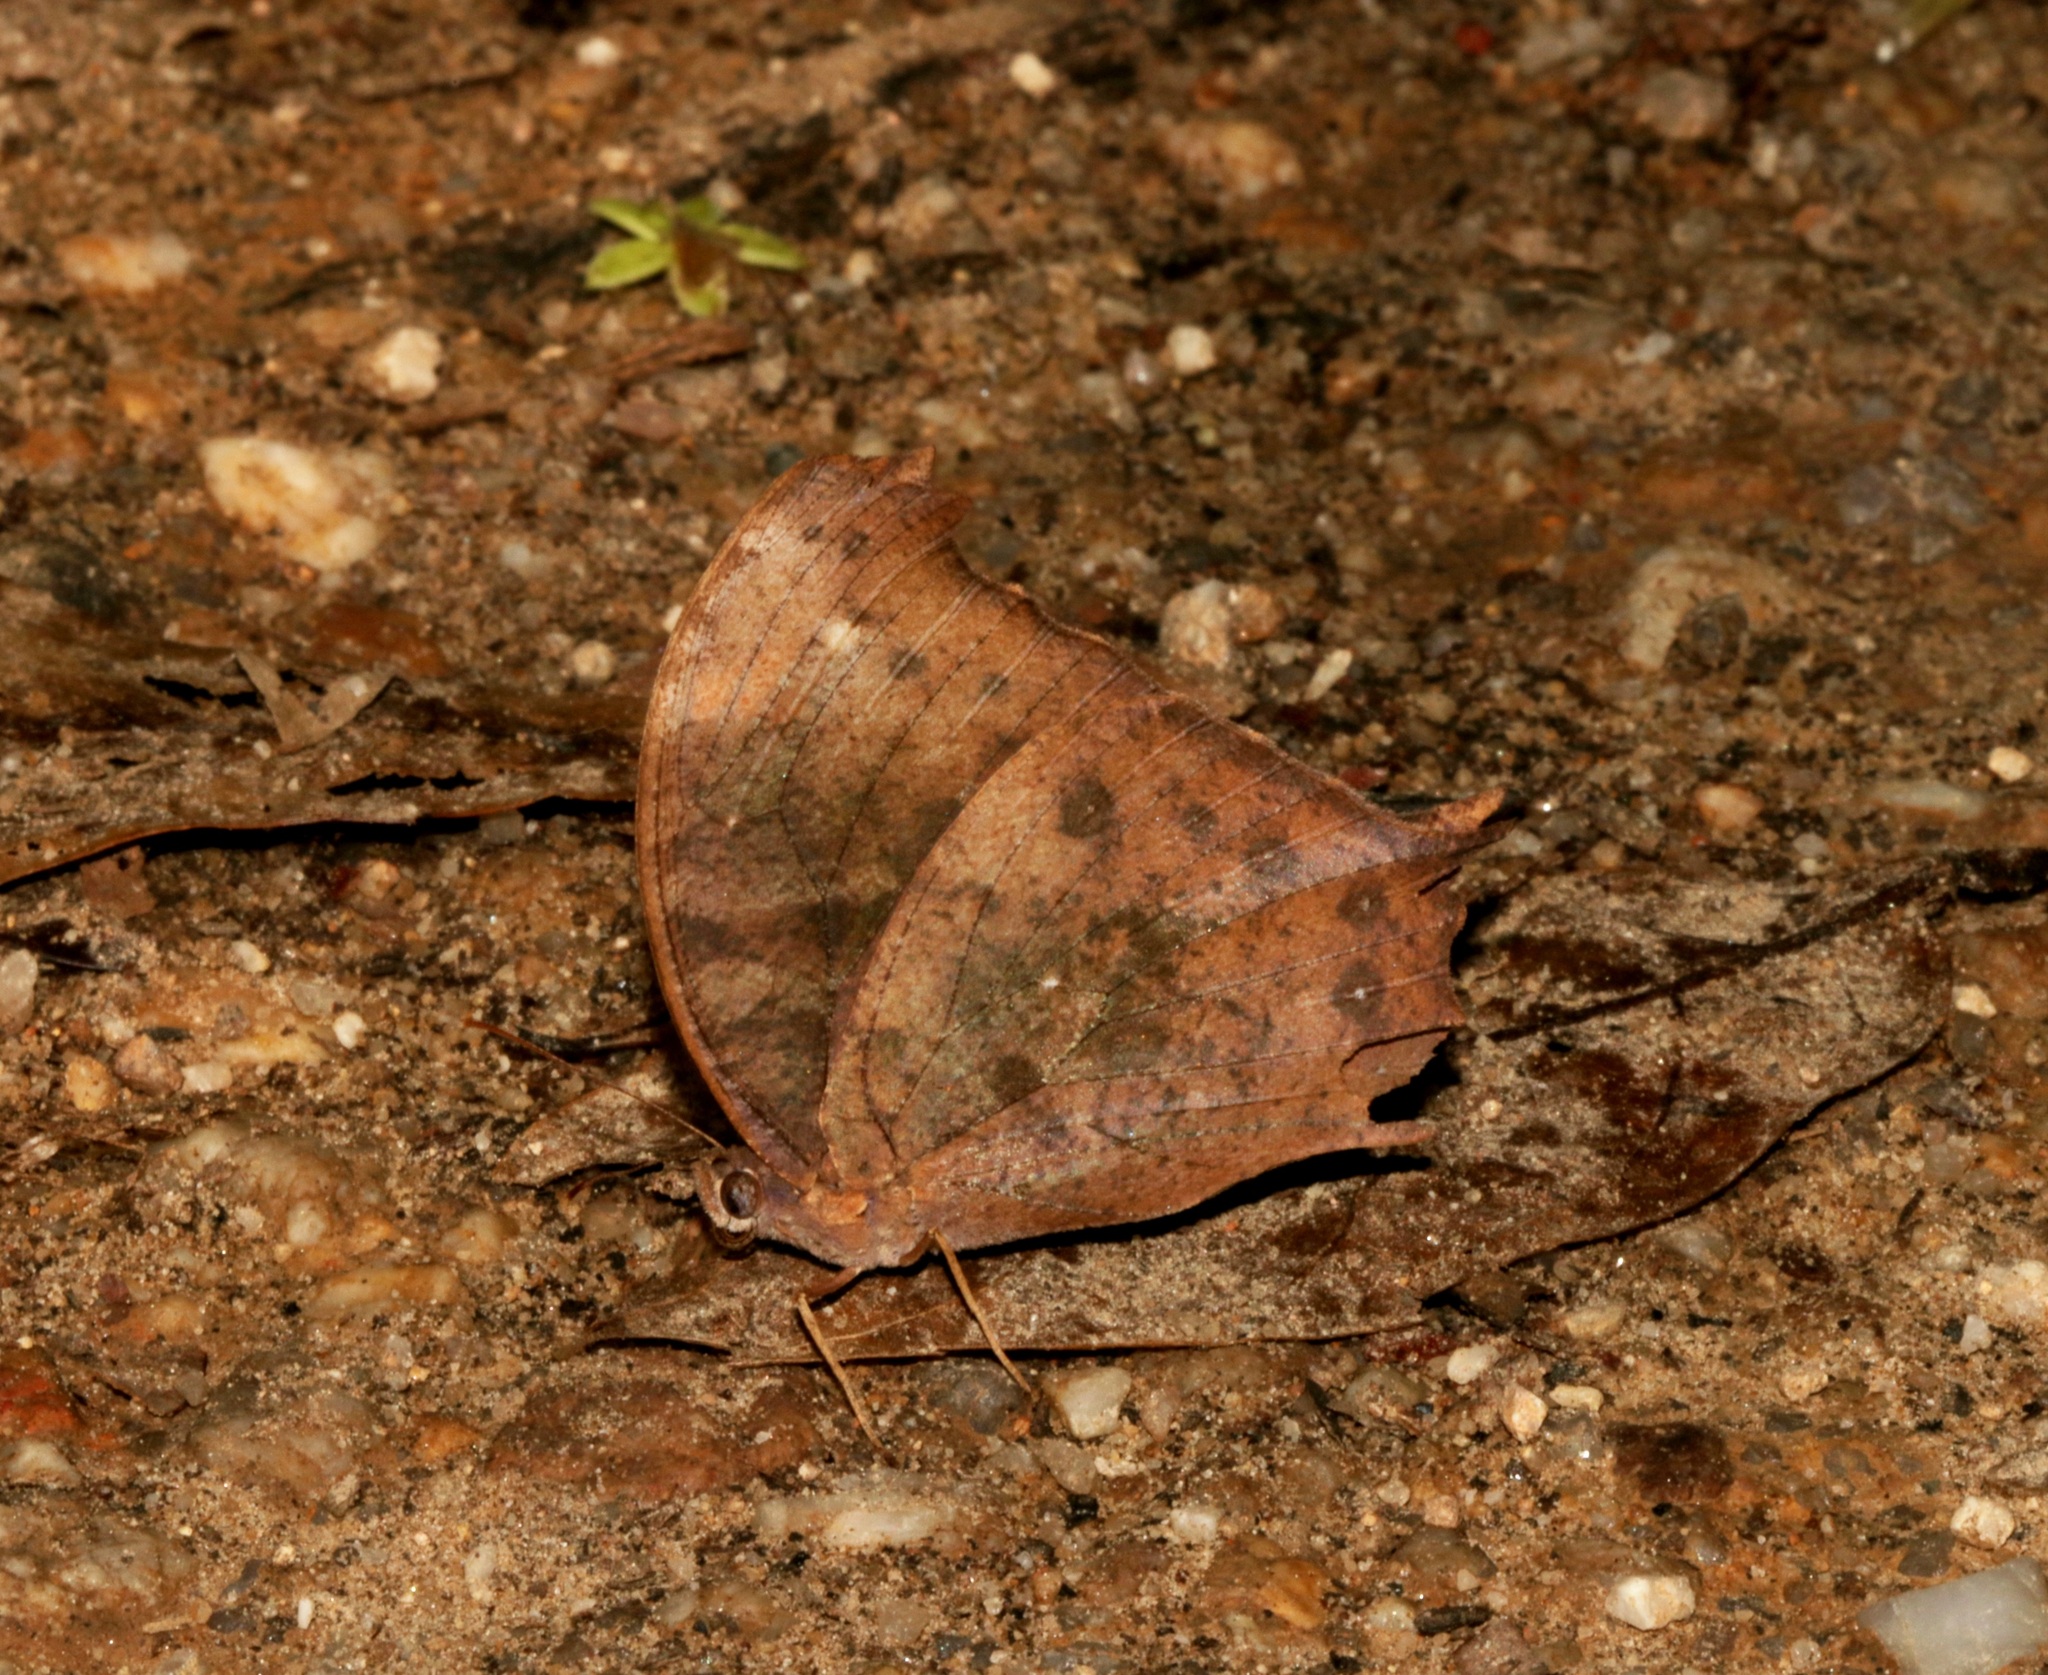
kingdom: Animalia
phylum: Arthropoda
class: Insecta
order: Lepidoptera
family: Nymphalidae
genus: Melanitis
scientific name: Melanitis phedima
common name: Dark evening brown
